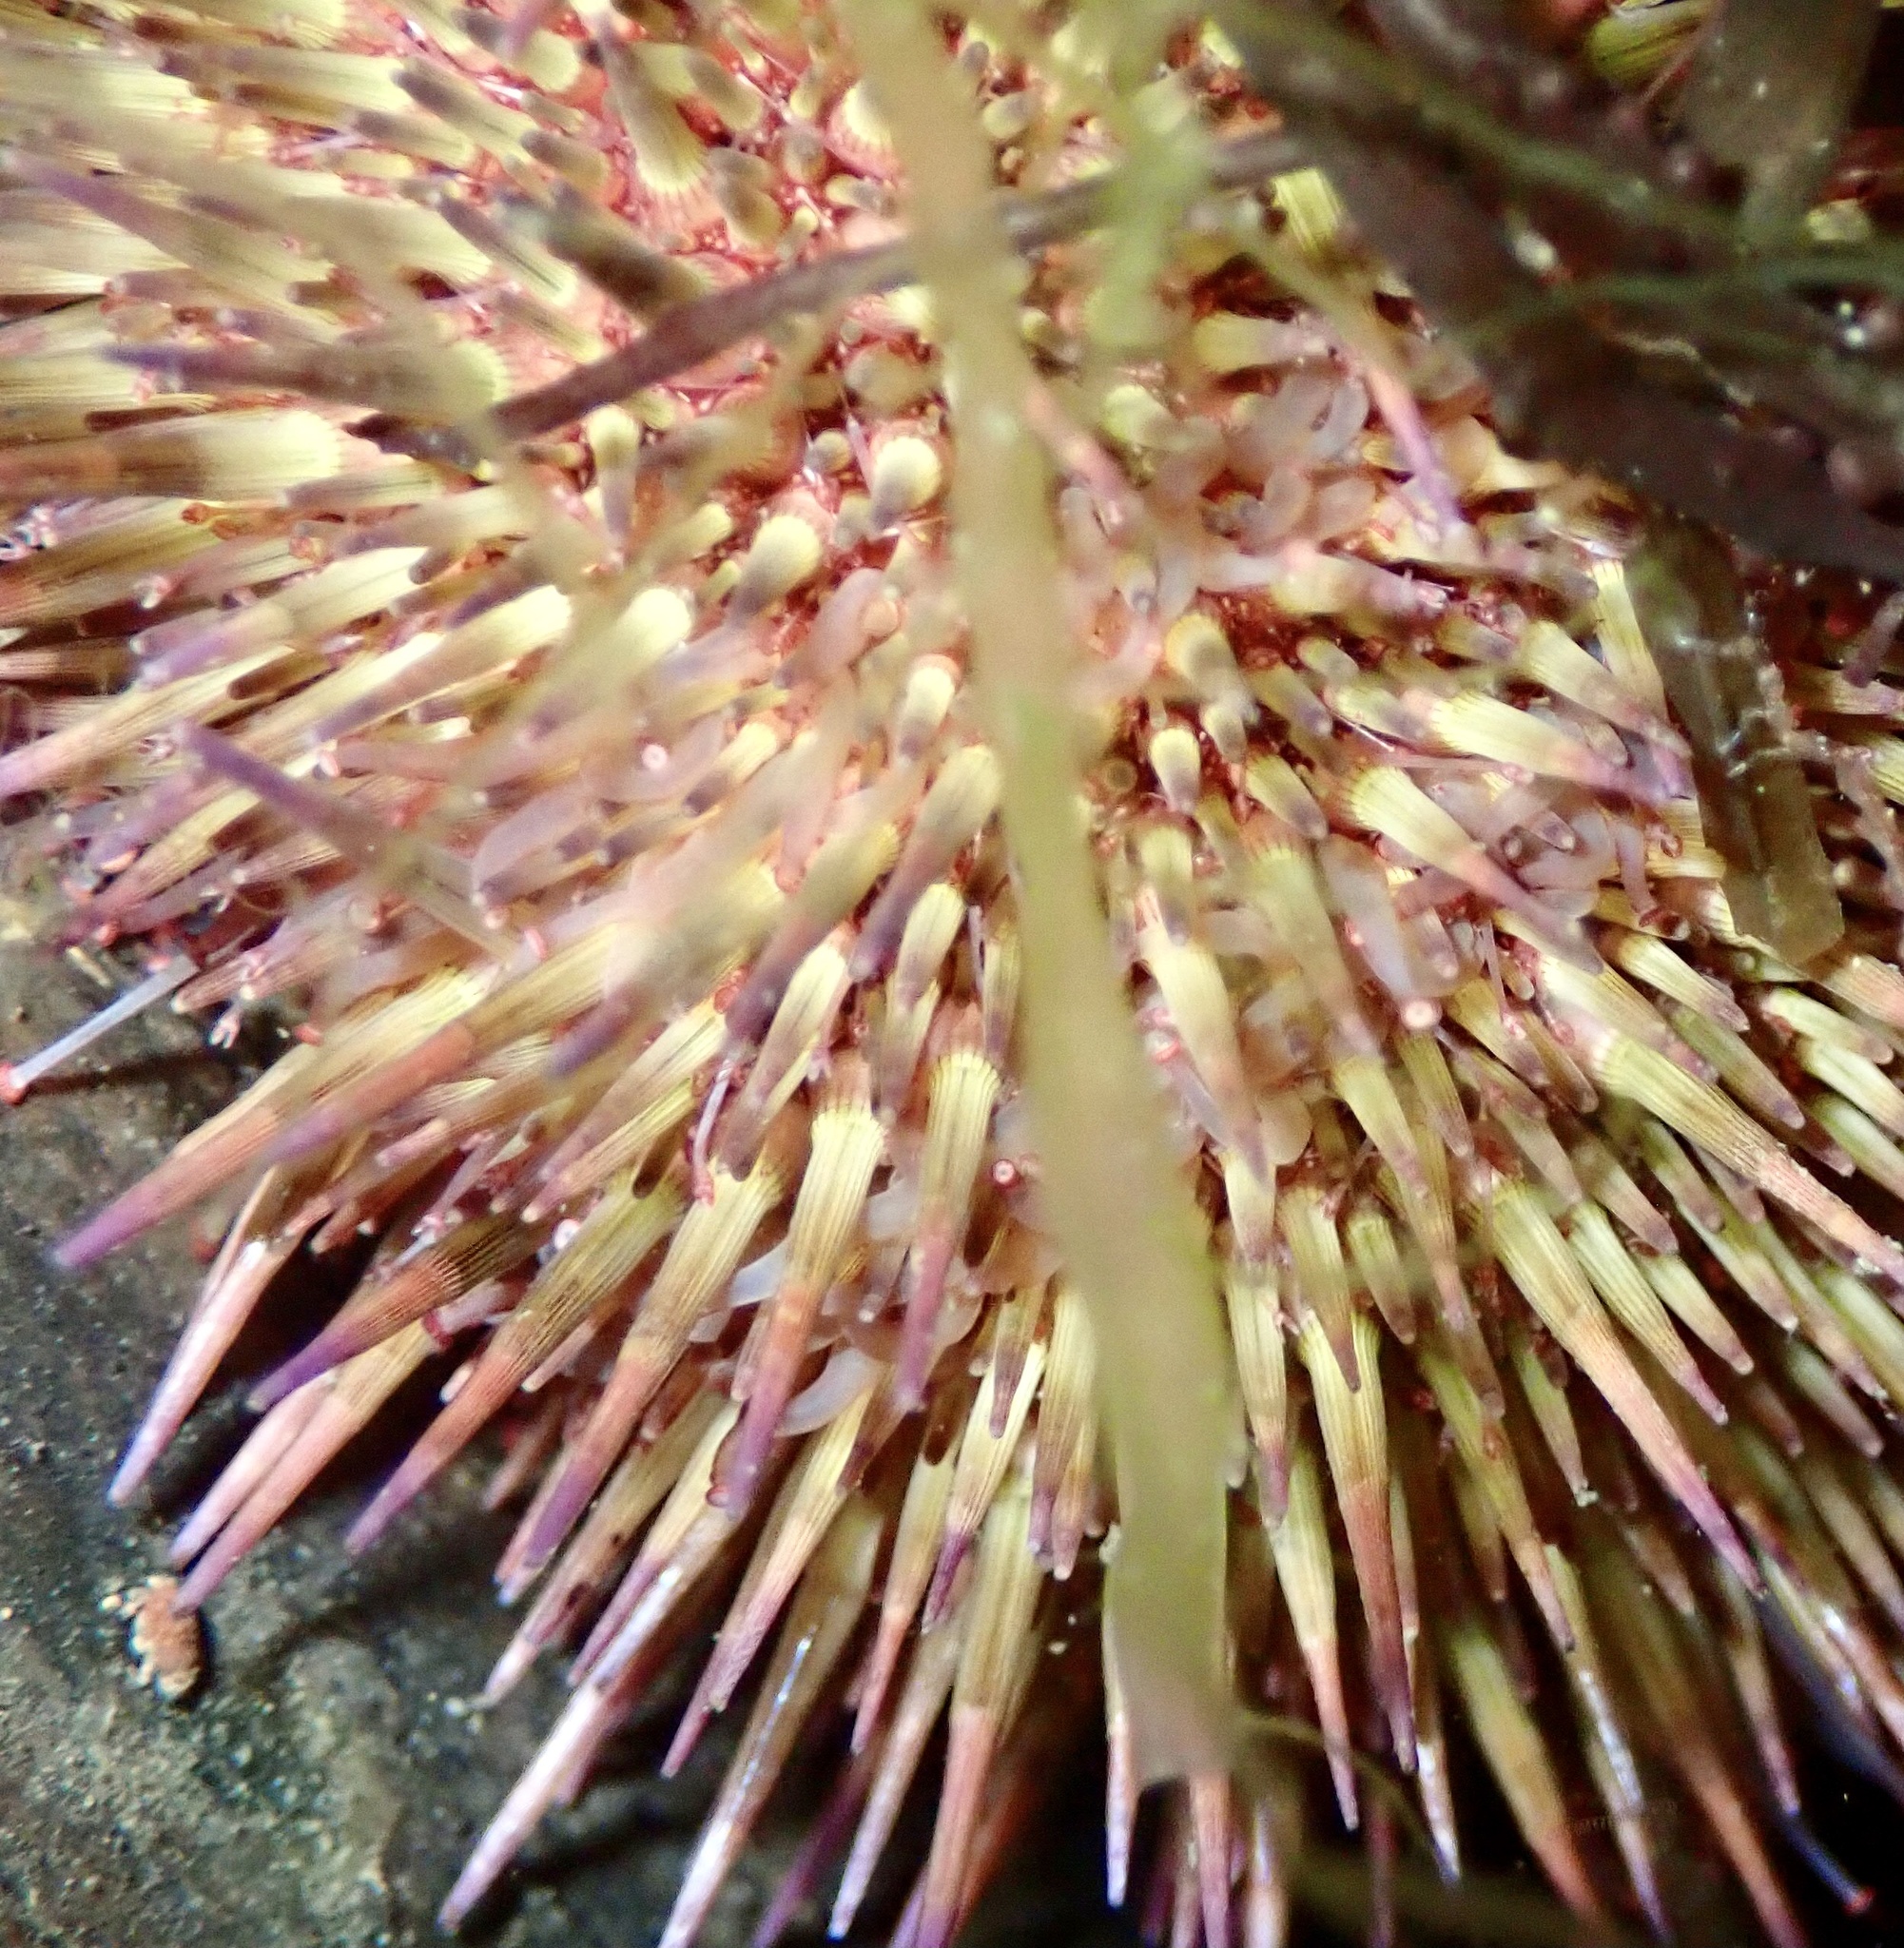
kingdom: Animalia
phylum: Echinodermata
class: Echinoidea
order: Camarodonta
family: Parechinidae
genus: Psammechinus
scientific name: Psammechinus miliaris
